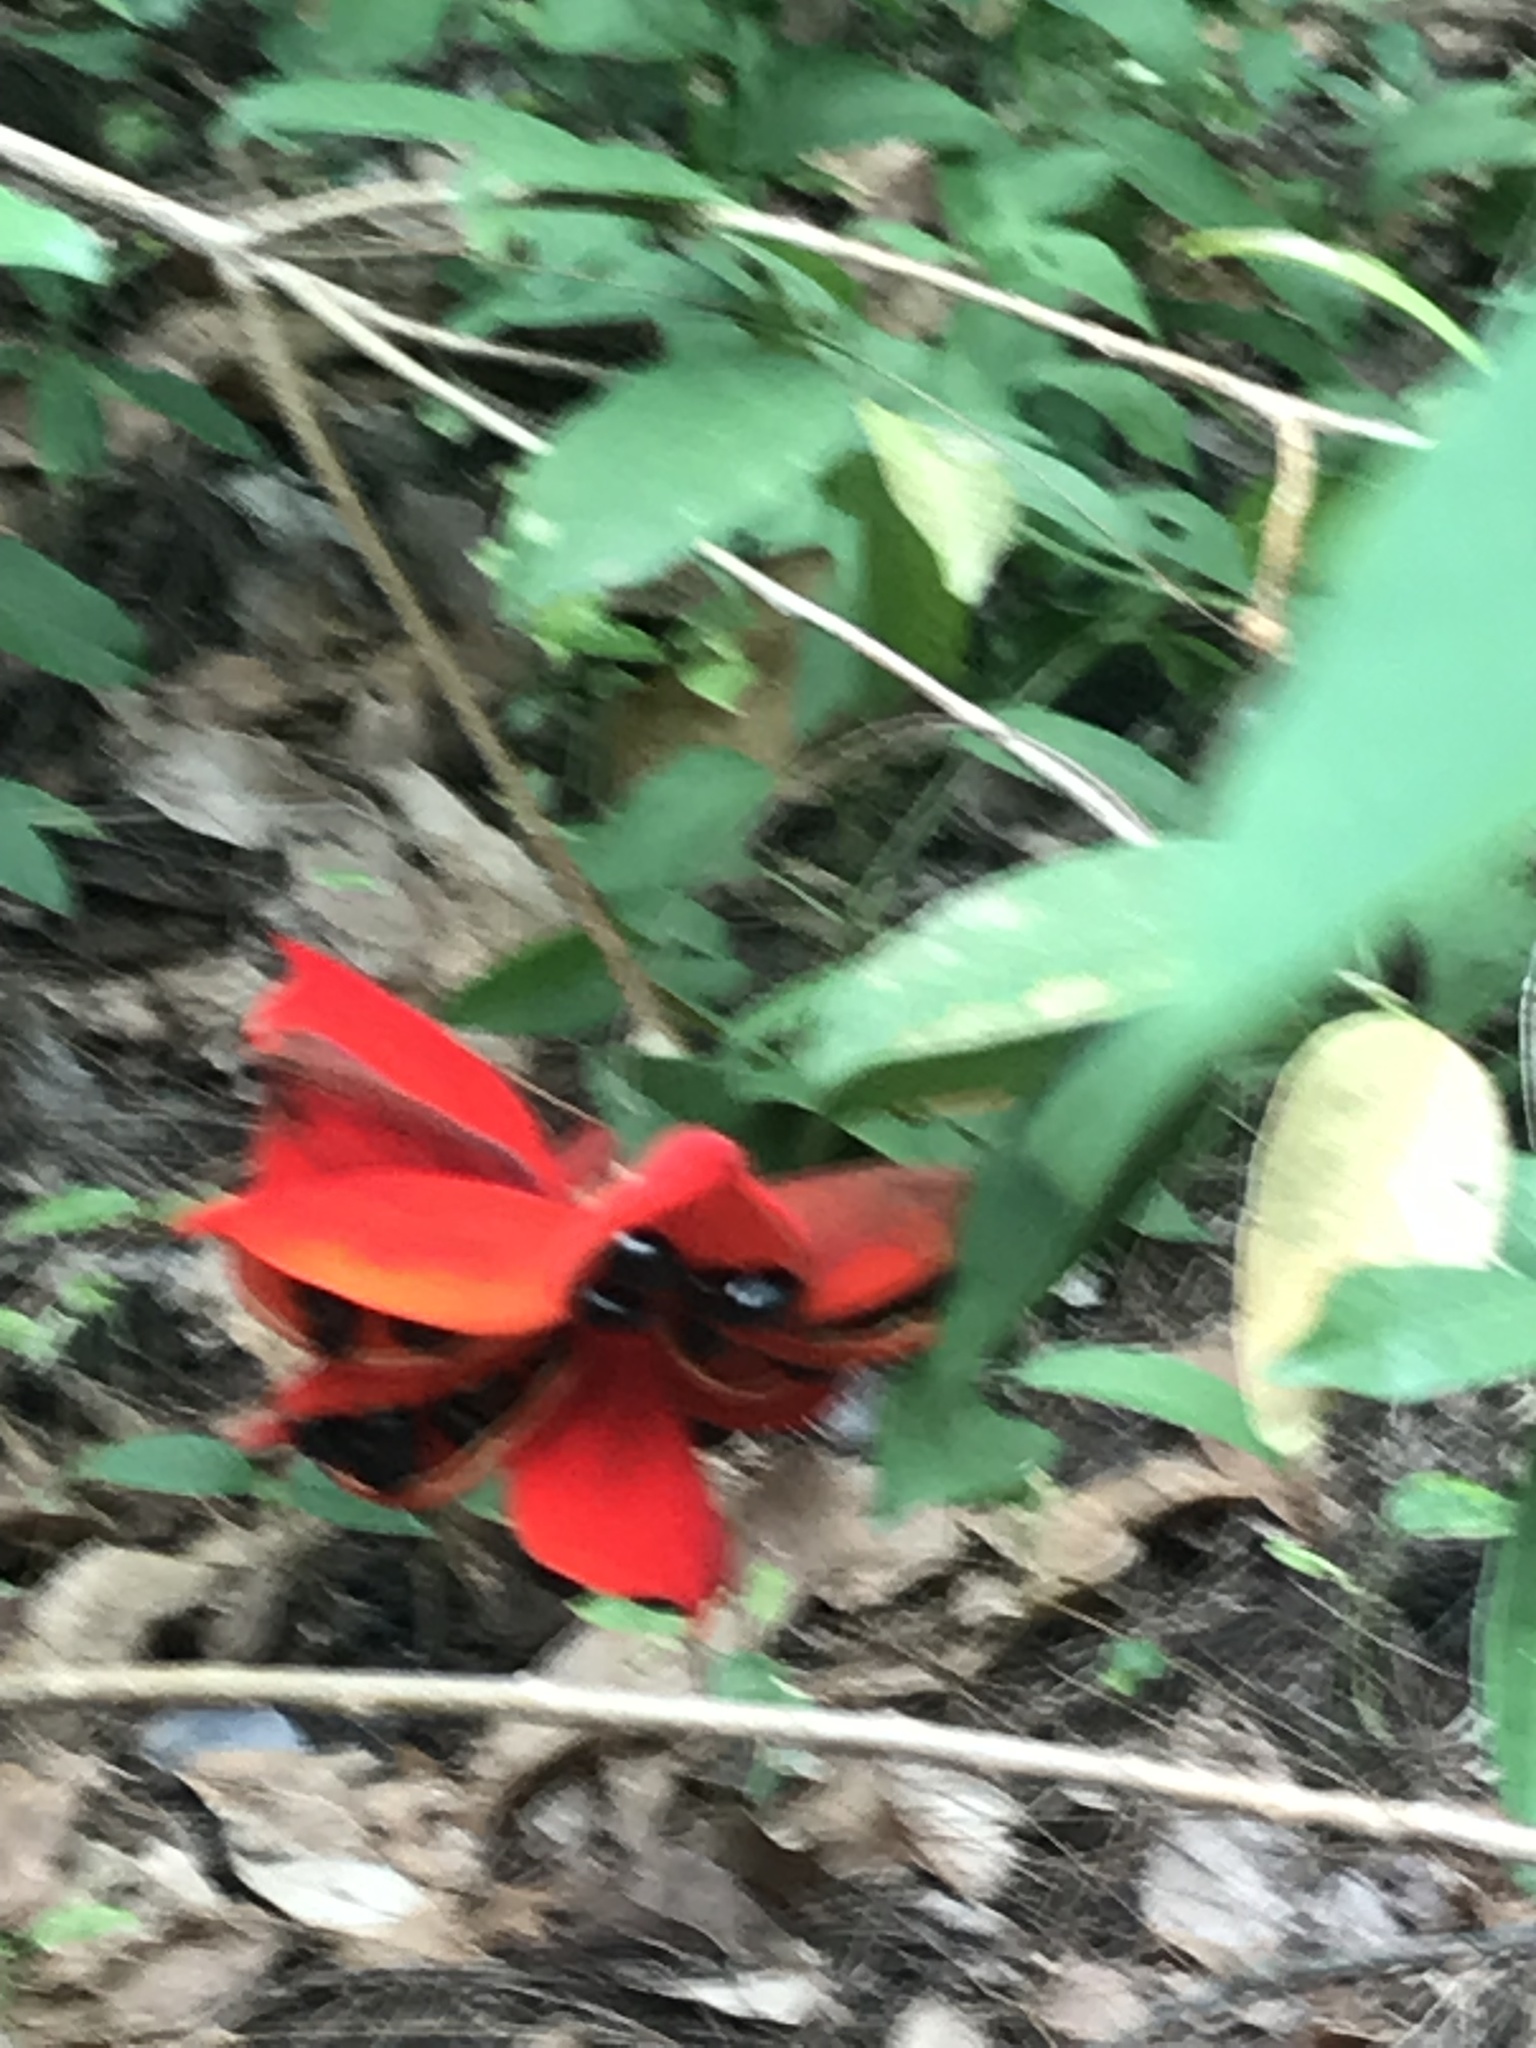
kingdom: Plantae
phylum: Tracheophyta
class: Magnoliopsida
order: Malvales
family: Malvaceae
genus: Sterculia
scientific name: Sterculia lanceolata
